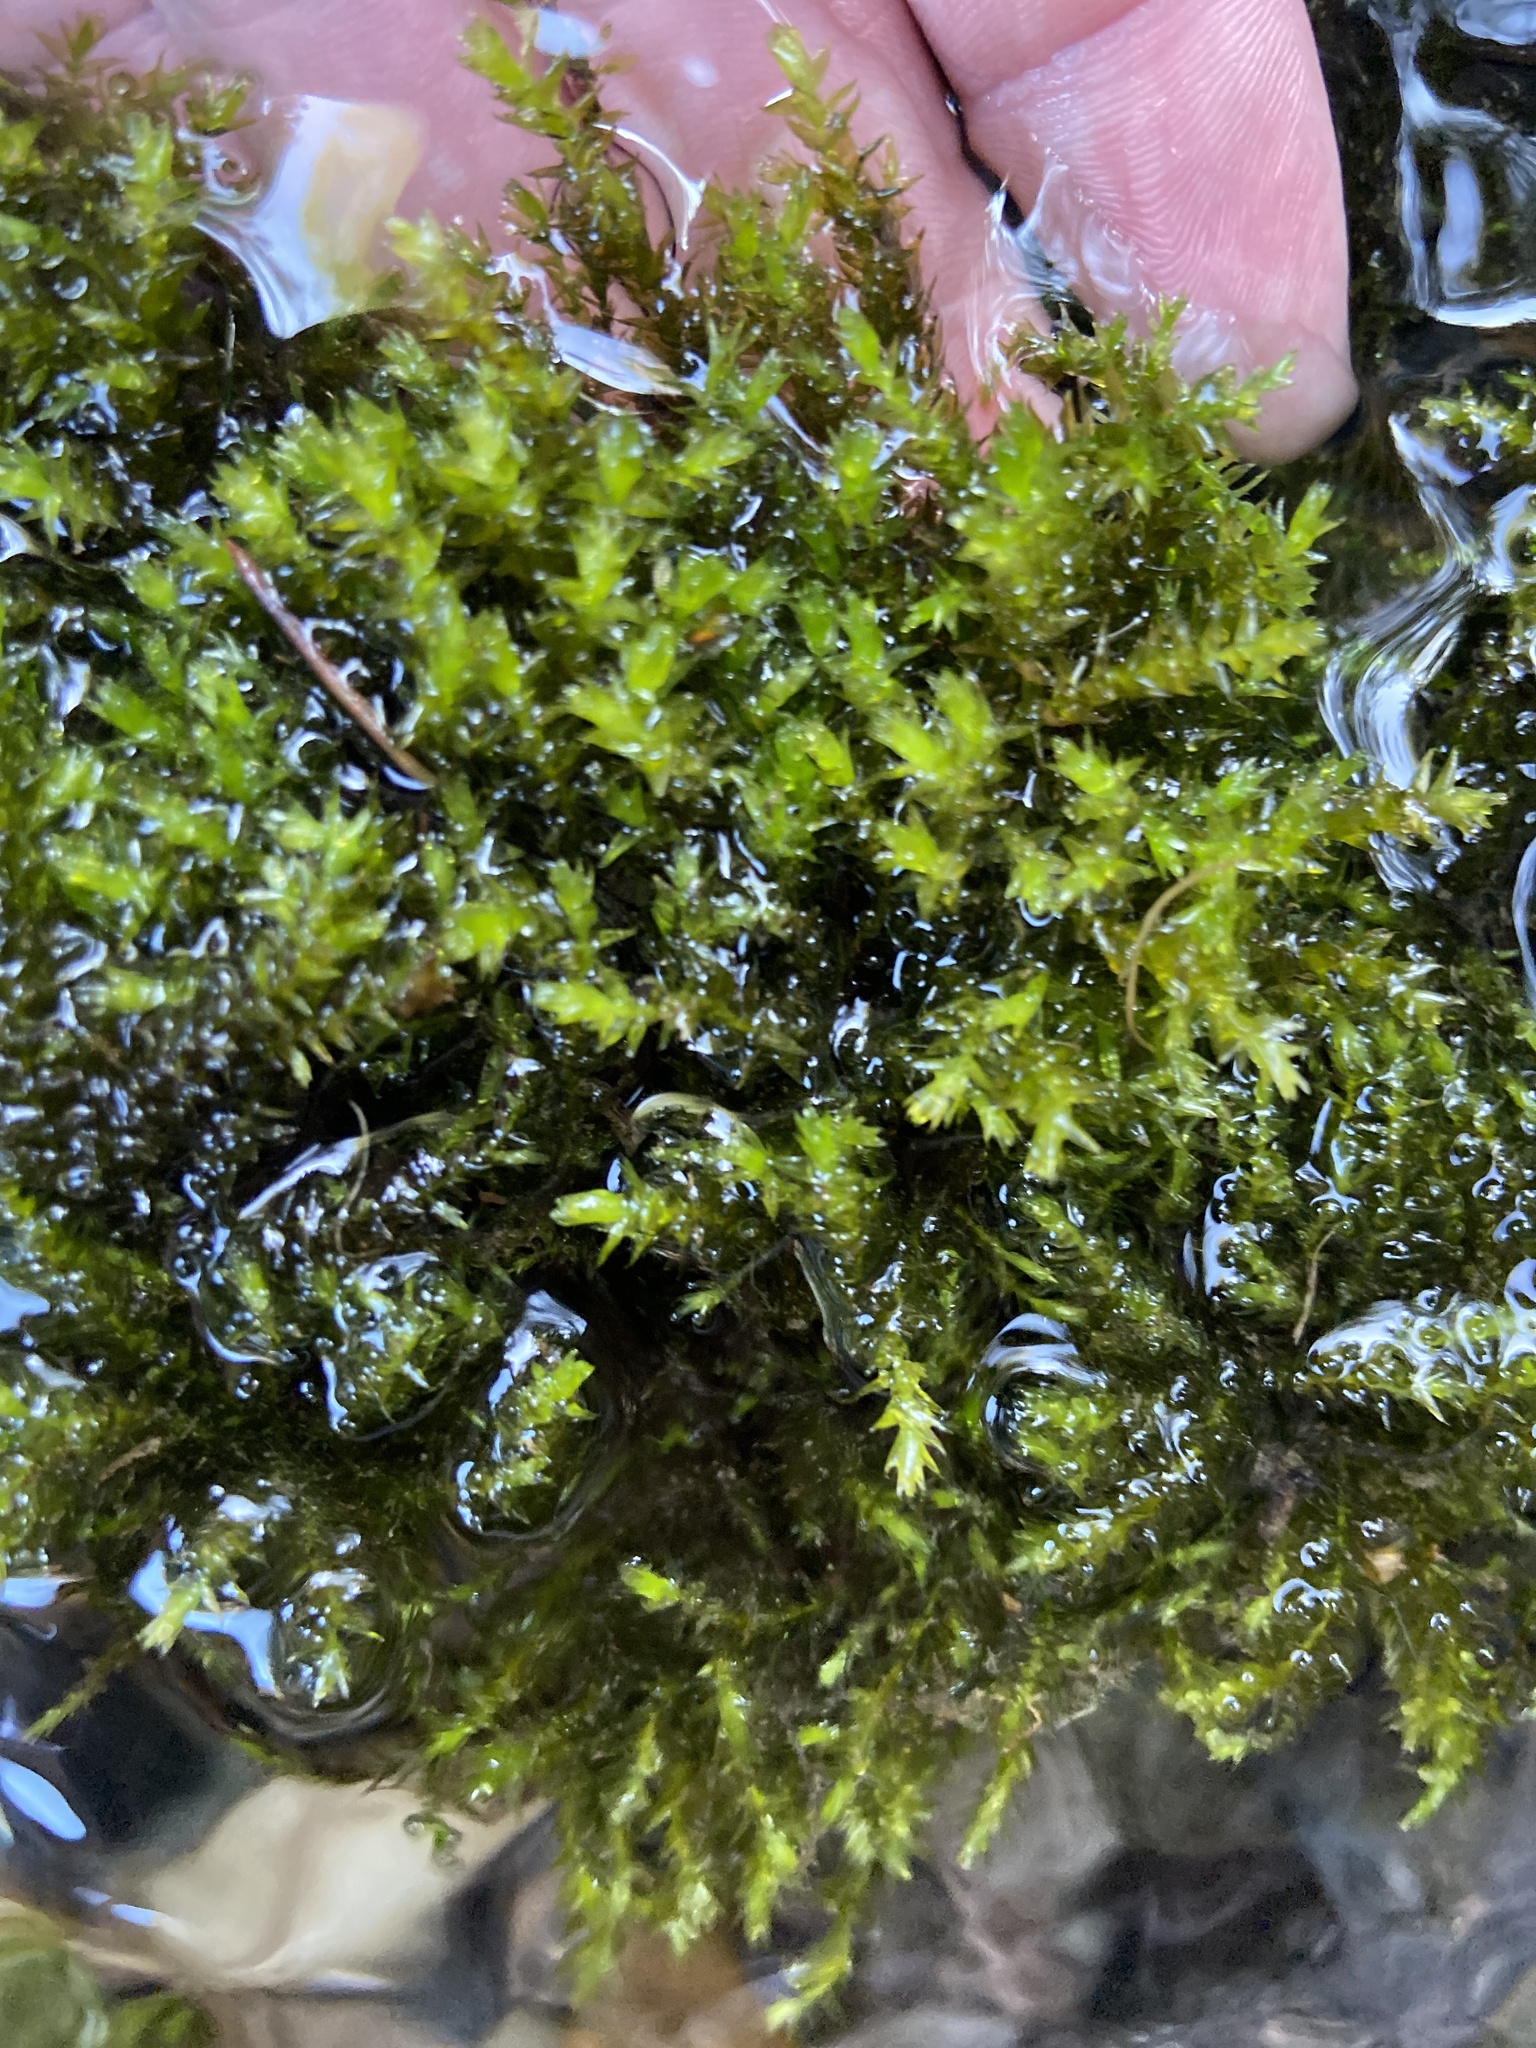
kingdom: Plantae
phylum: Bryophyta
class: Bryopsida
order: Hypnales
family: Brachytheciaceae
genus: Rhynchostegium
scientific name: Rhynchostegium riparioides
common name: Platyhypnidium moss
